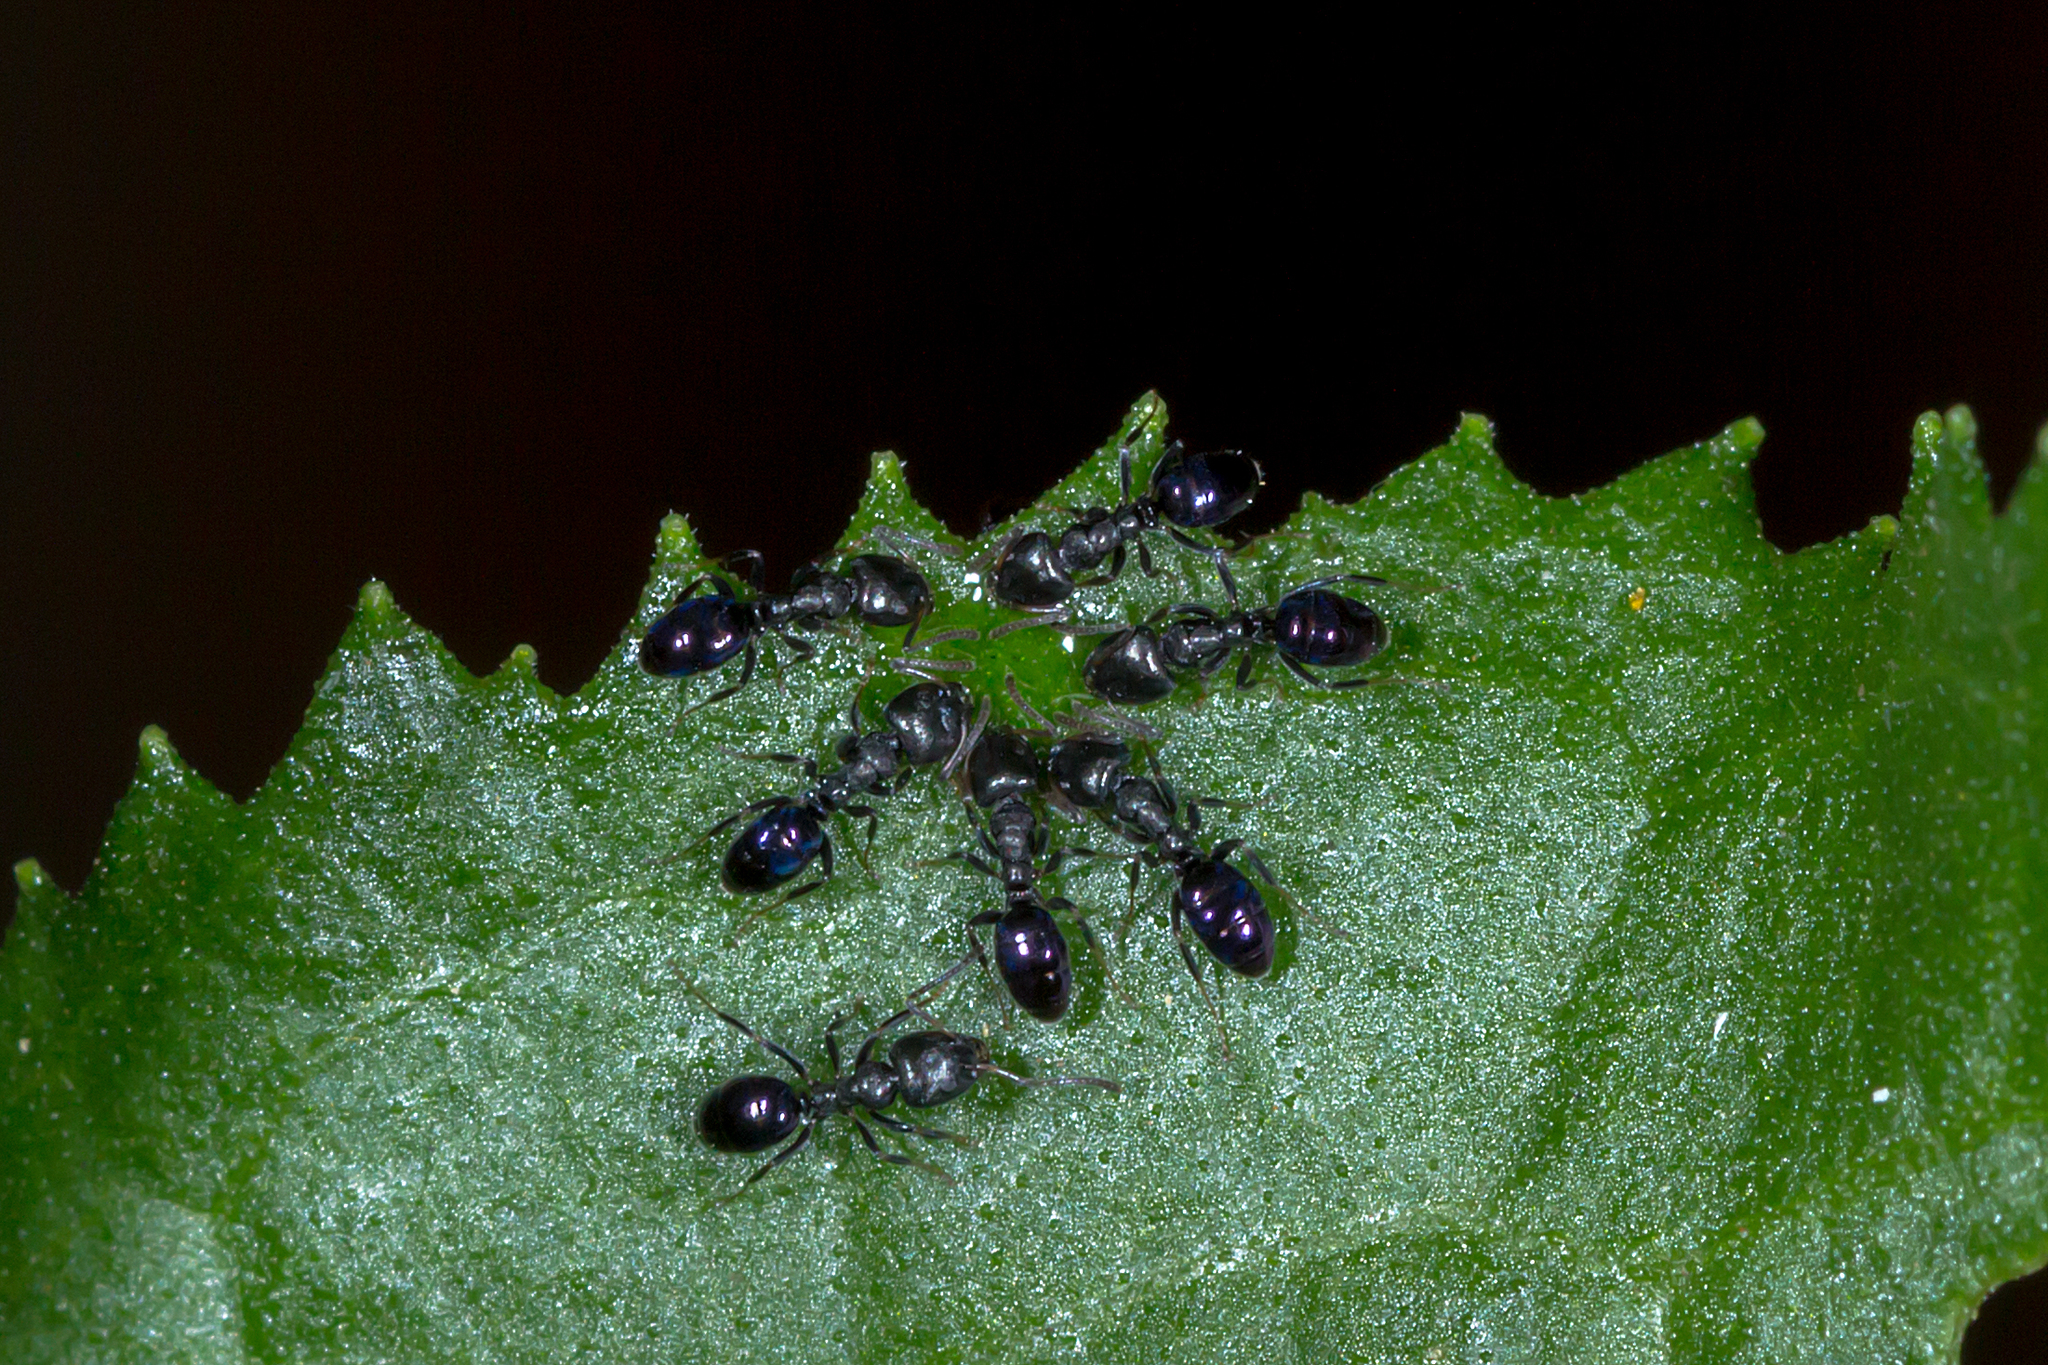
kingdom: Animalia
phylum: Arthropoda
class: Insecta
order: Hymenoptera
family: Formicidae
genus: Ochetellus
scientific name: Ochetellus glaber
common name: Ant
